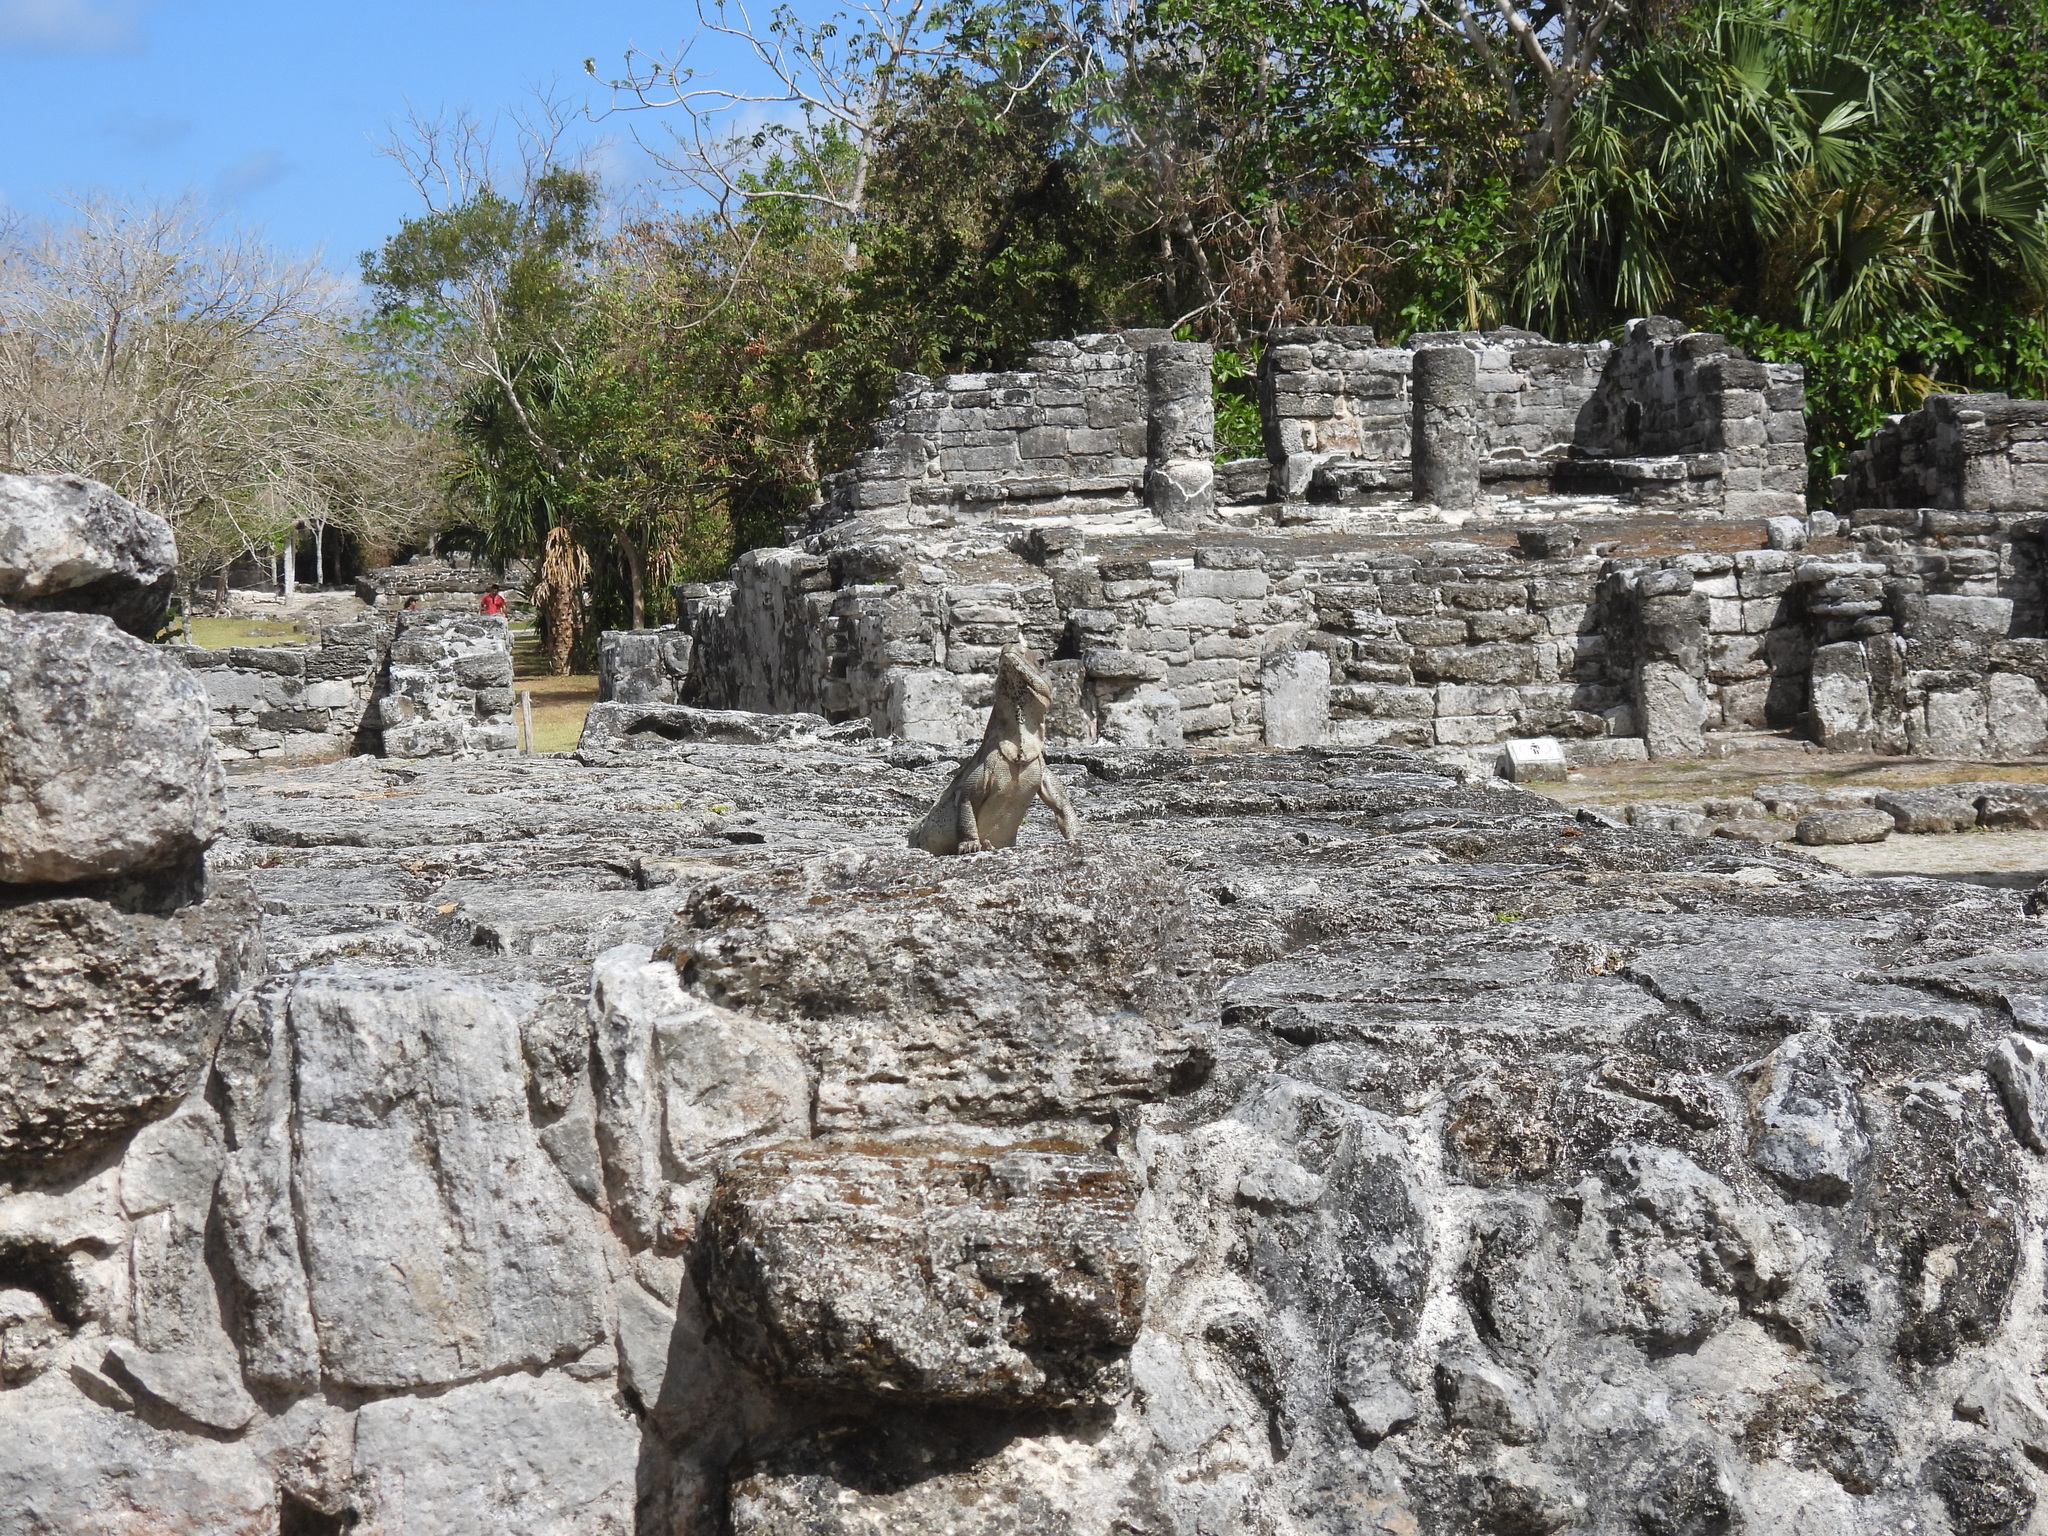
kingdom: Animalia
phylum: Chordata
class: Squamata
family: Iguanidae
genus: Ctenosaura
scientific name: Ctenosaura similis
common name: Black spiny-tailed iguana
